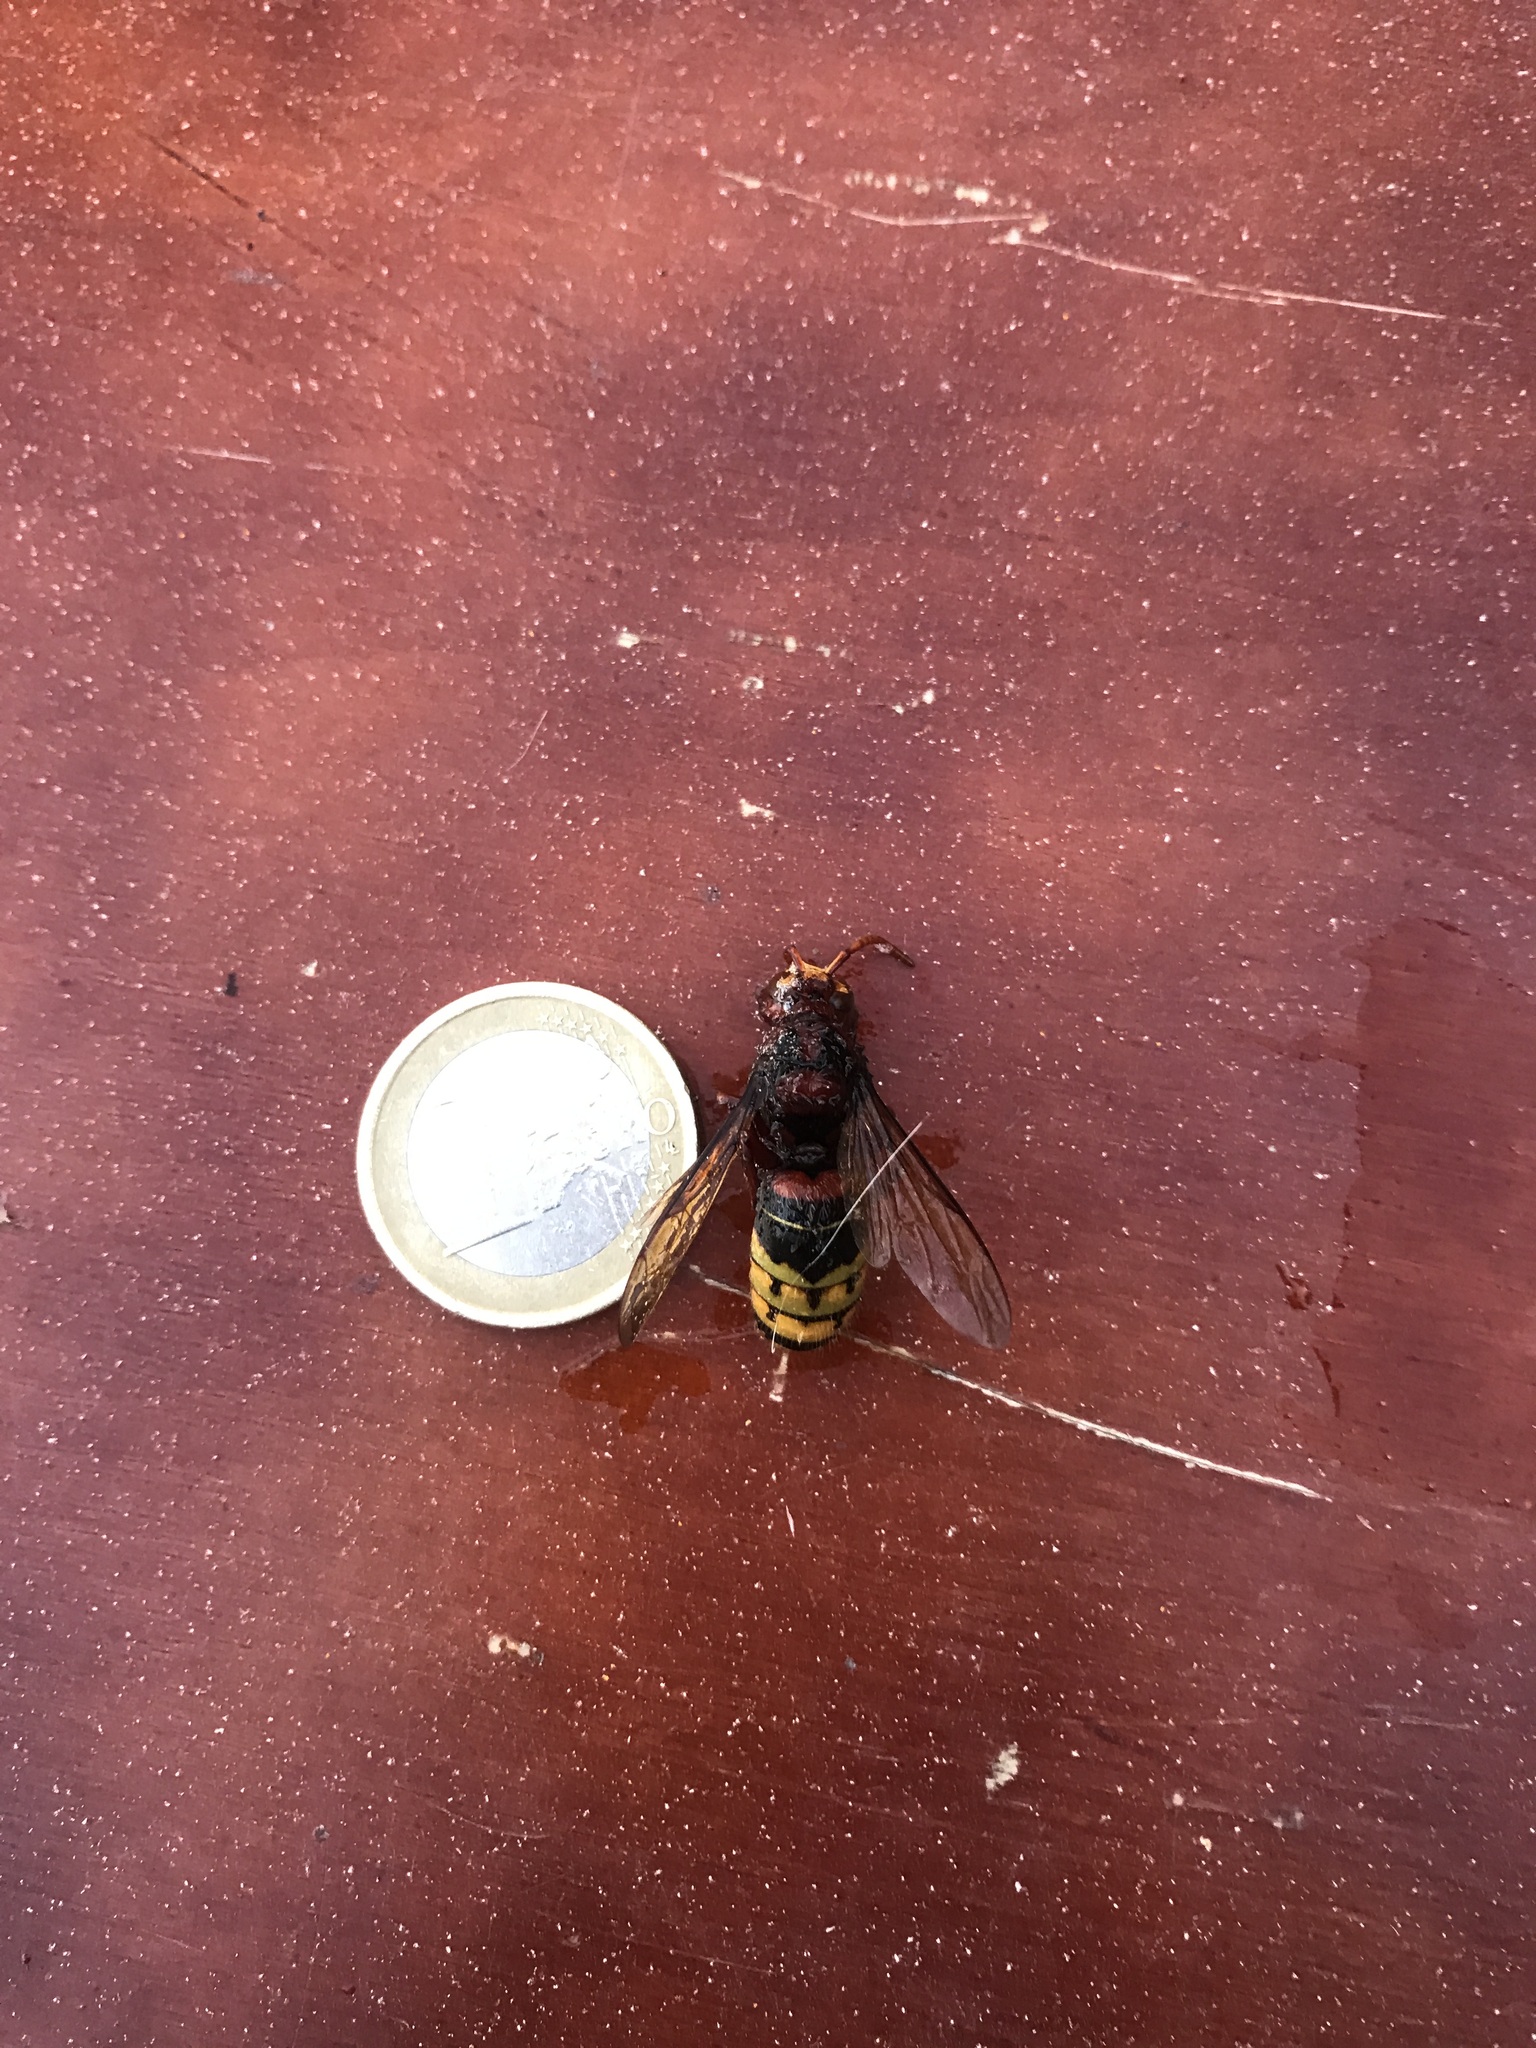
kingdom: Animalia
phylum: Arthropoda
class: Insecta
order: Hymenoptera
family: Vespidae
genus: Vespa
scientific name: Vespa crabro
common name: Hornet
